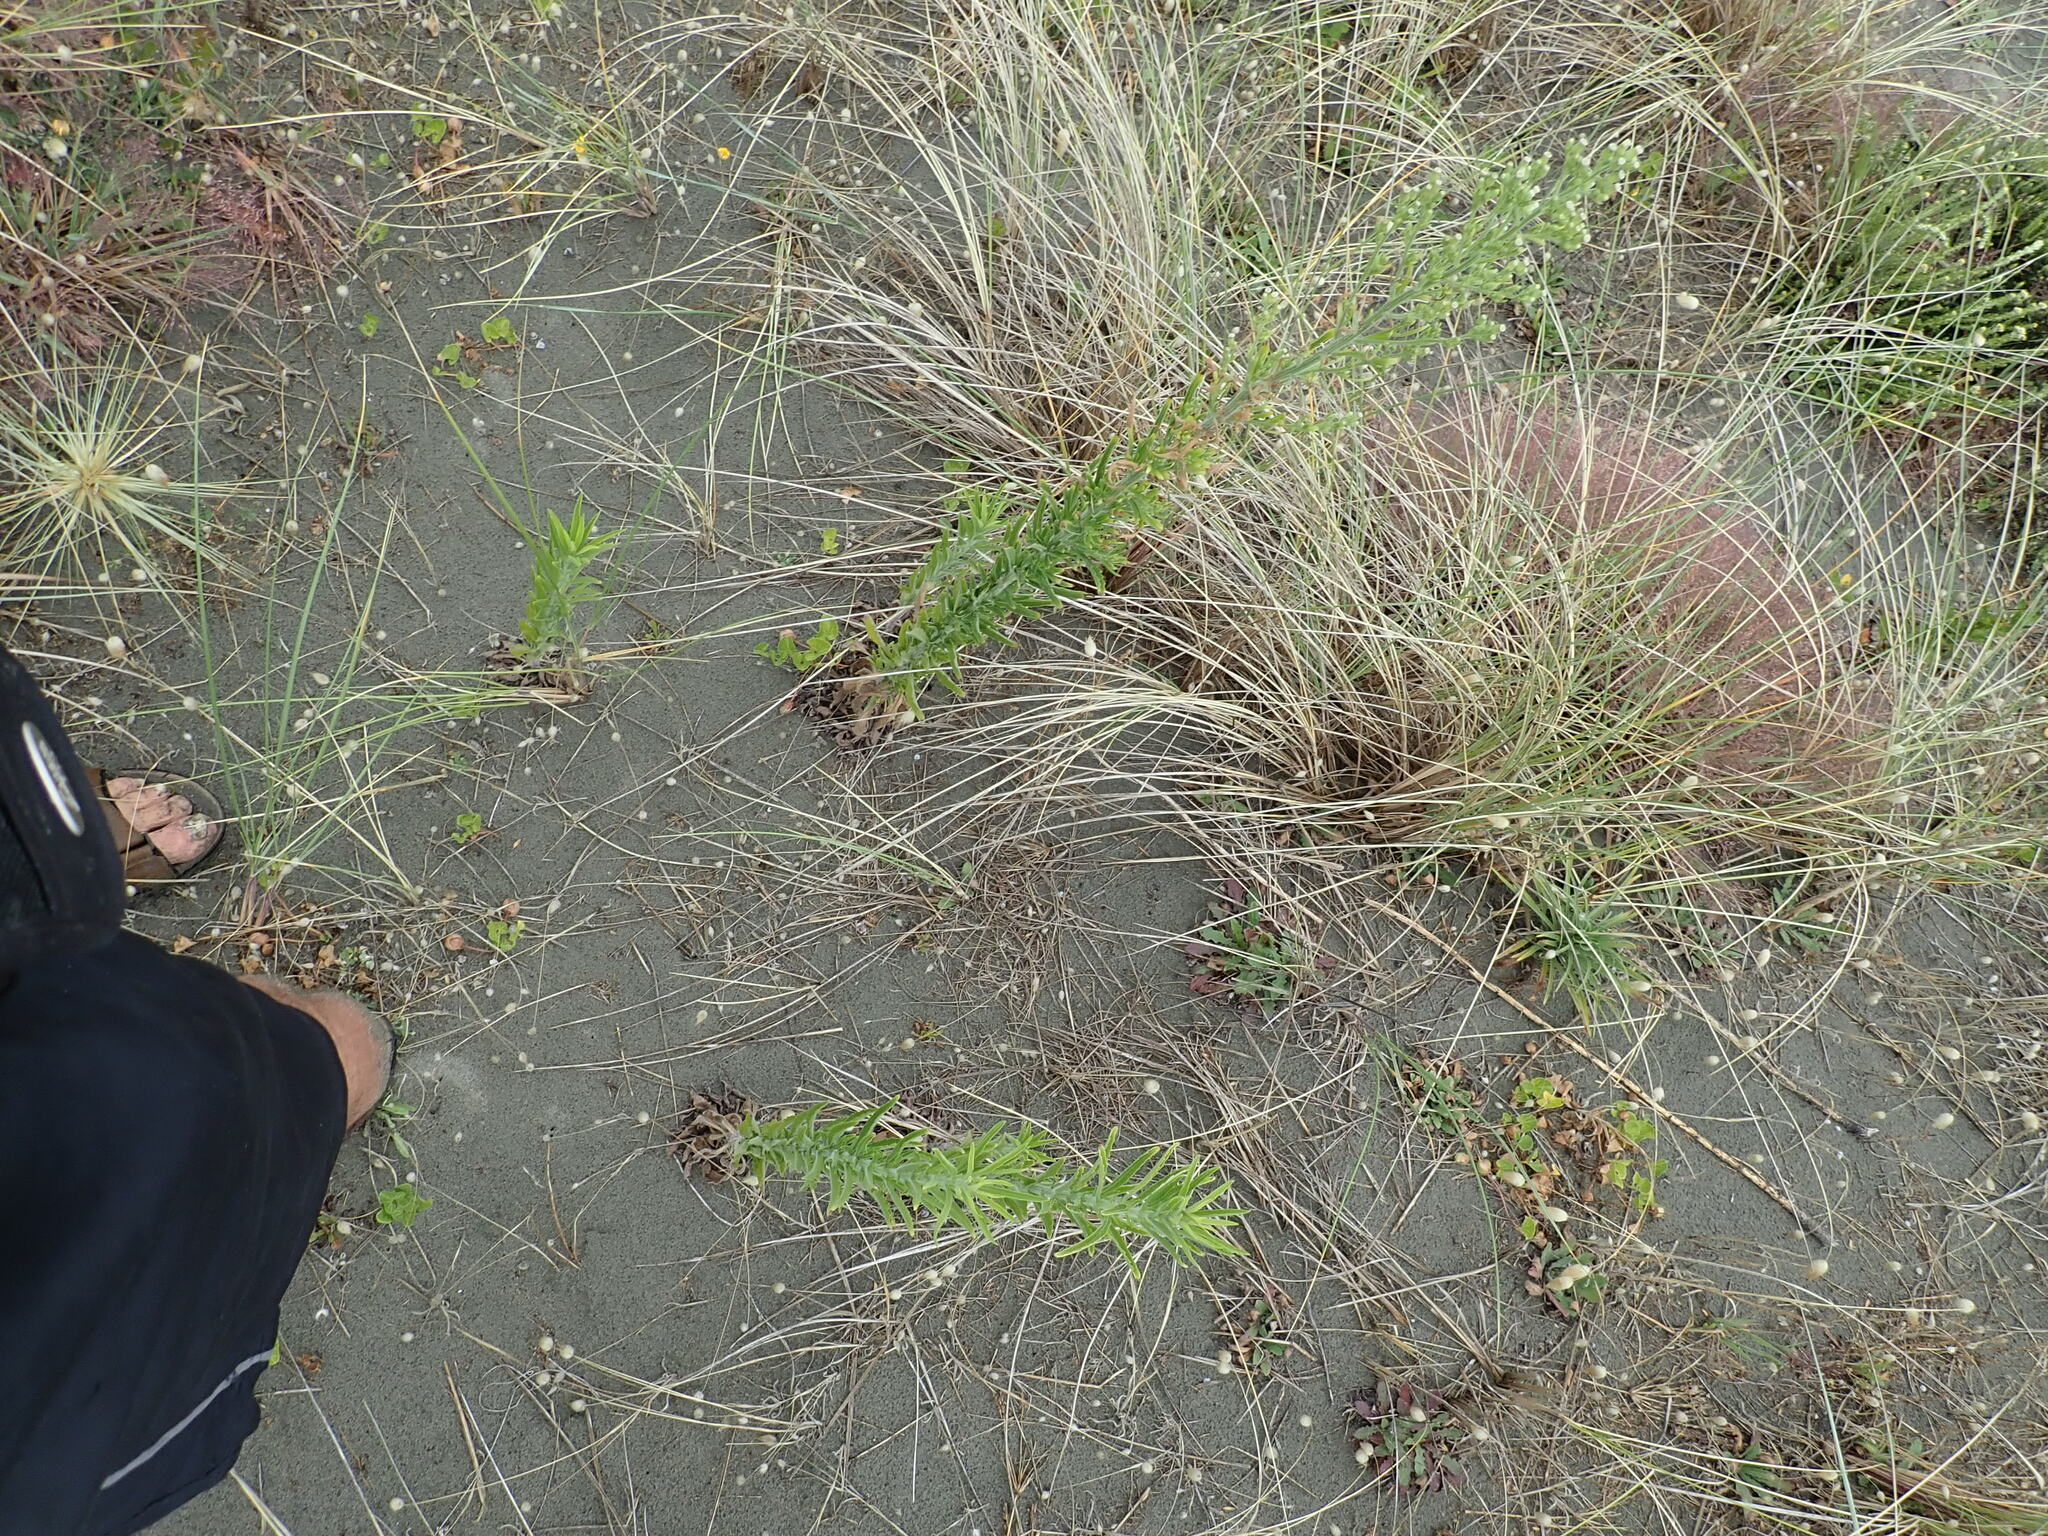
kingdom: Plantae
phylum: Tracheophyta
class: Magnoliopsida
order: Asterales
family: Asteraceae
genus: Erigeron
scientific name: Erigeron sumatrensis
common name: Daisy
